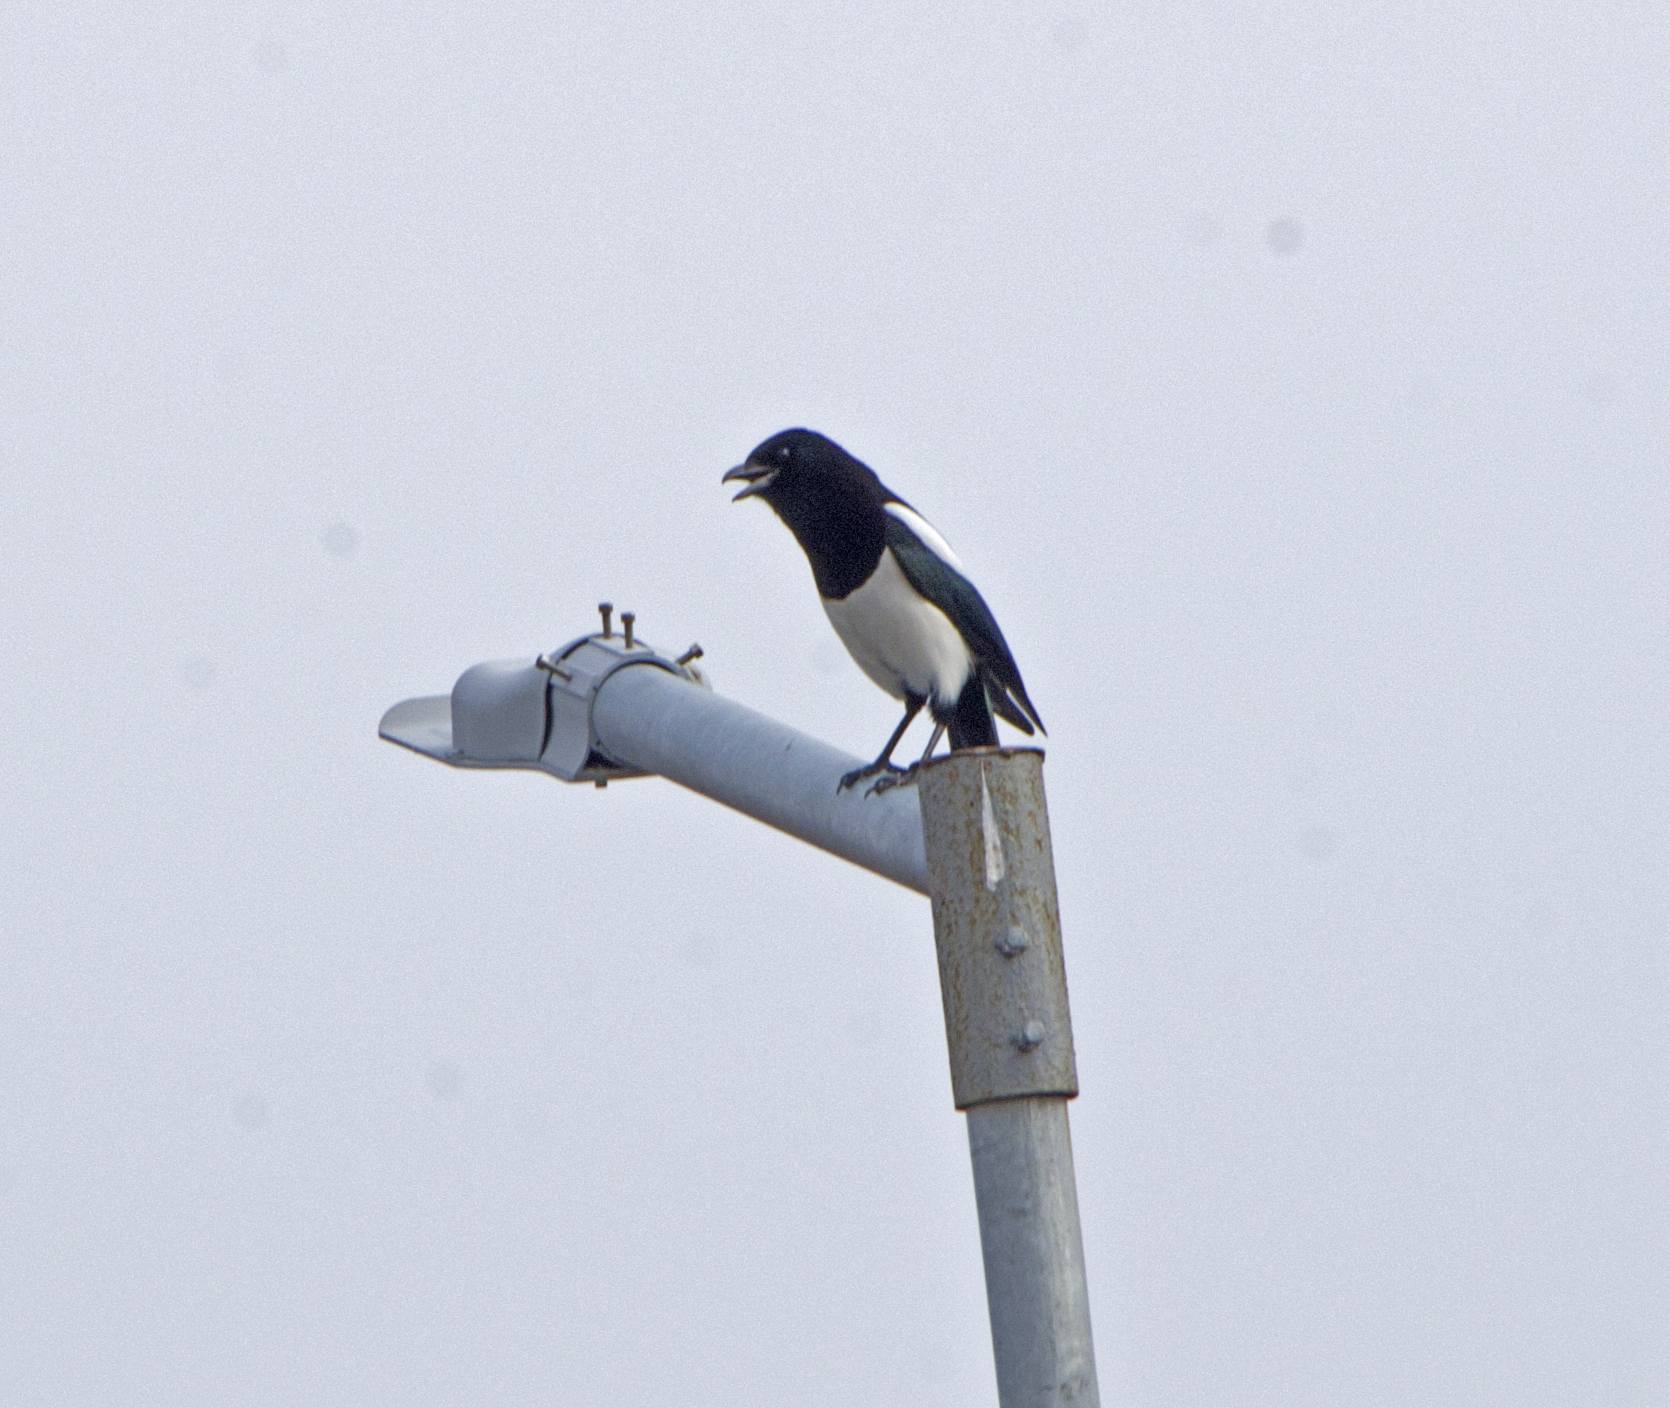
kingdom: Animalia
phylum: Chordata
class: Aves
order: Passeriformes
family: Corvidae
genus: Pica
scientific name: Pica pica
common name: Eurasian magpie
